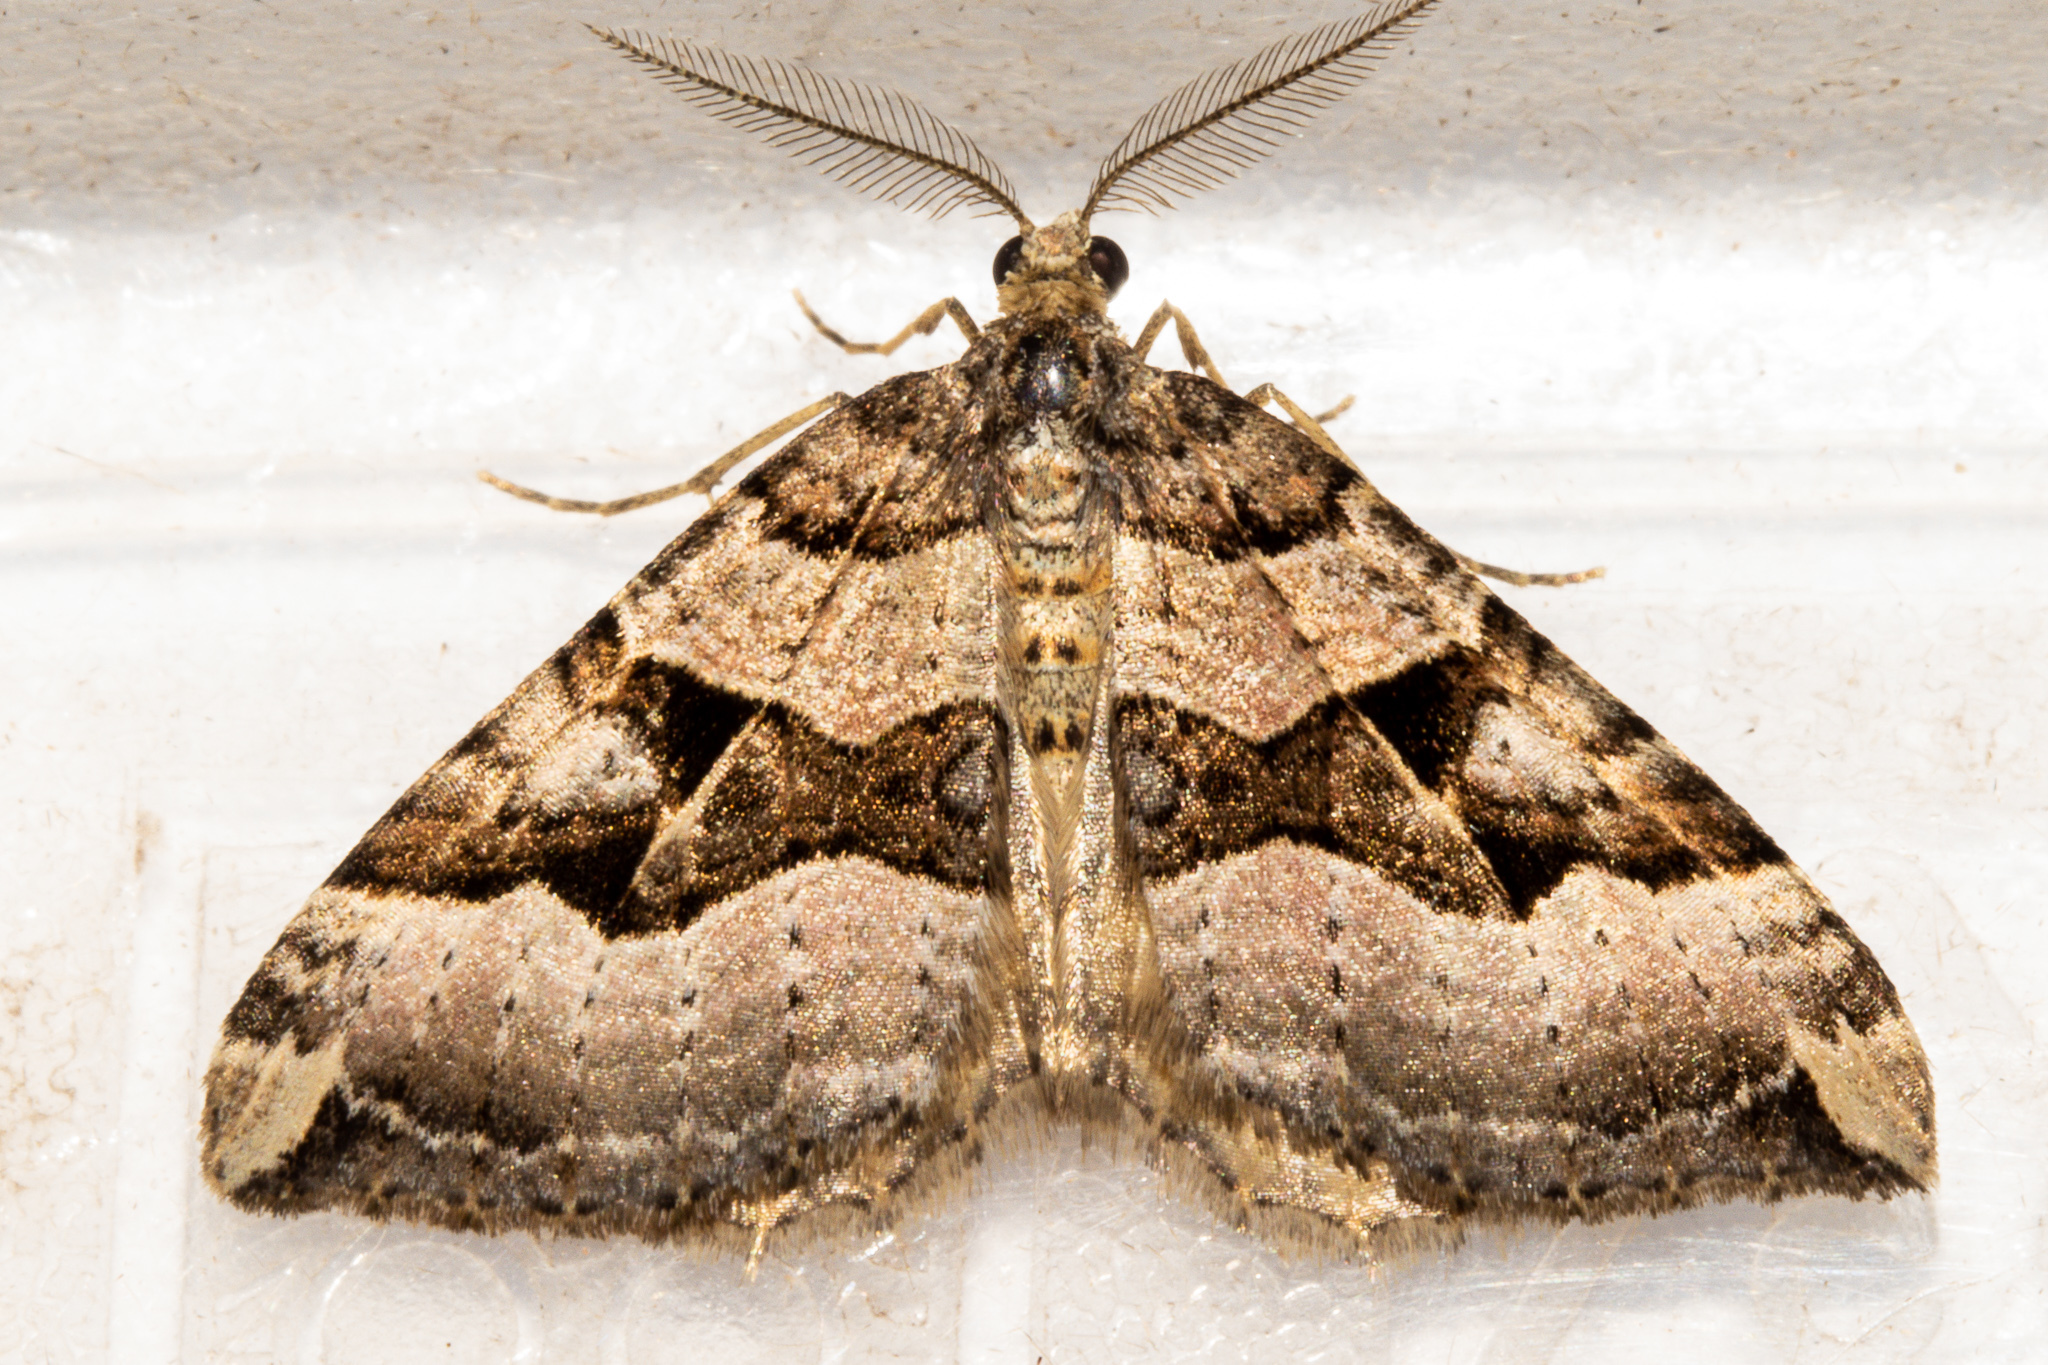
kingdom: Animalia
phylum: Arthropoda
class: Insecta
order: Lepidoptera
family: Geometridae
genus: Xanthorhoe
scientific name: Xanthorhoe semifissata
